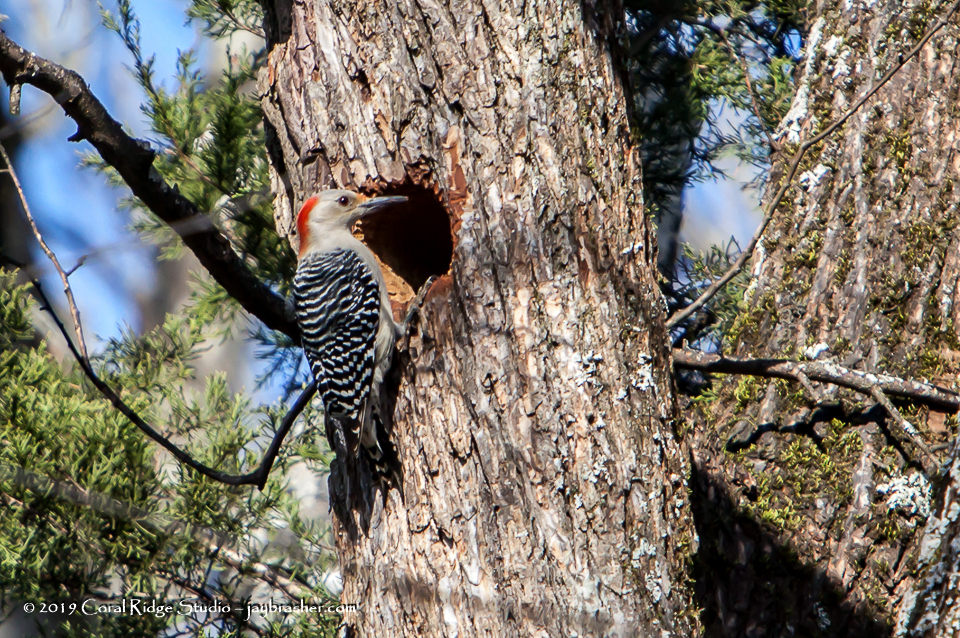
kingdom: Animalia
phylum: Chordata
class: Aves
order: Piciformes
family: Picidae
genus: Melanerpes
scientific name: Melanerpes carolinus
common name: Red-bellied woodpecker
